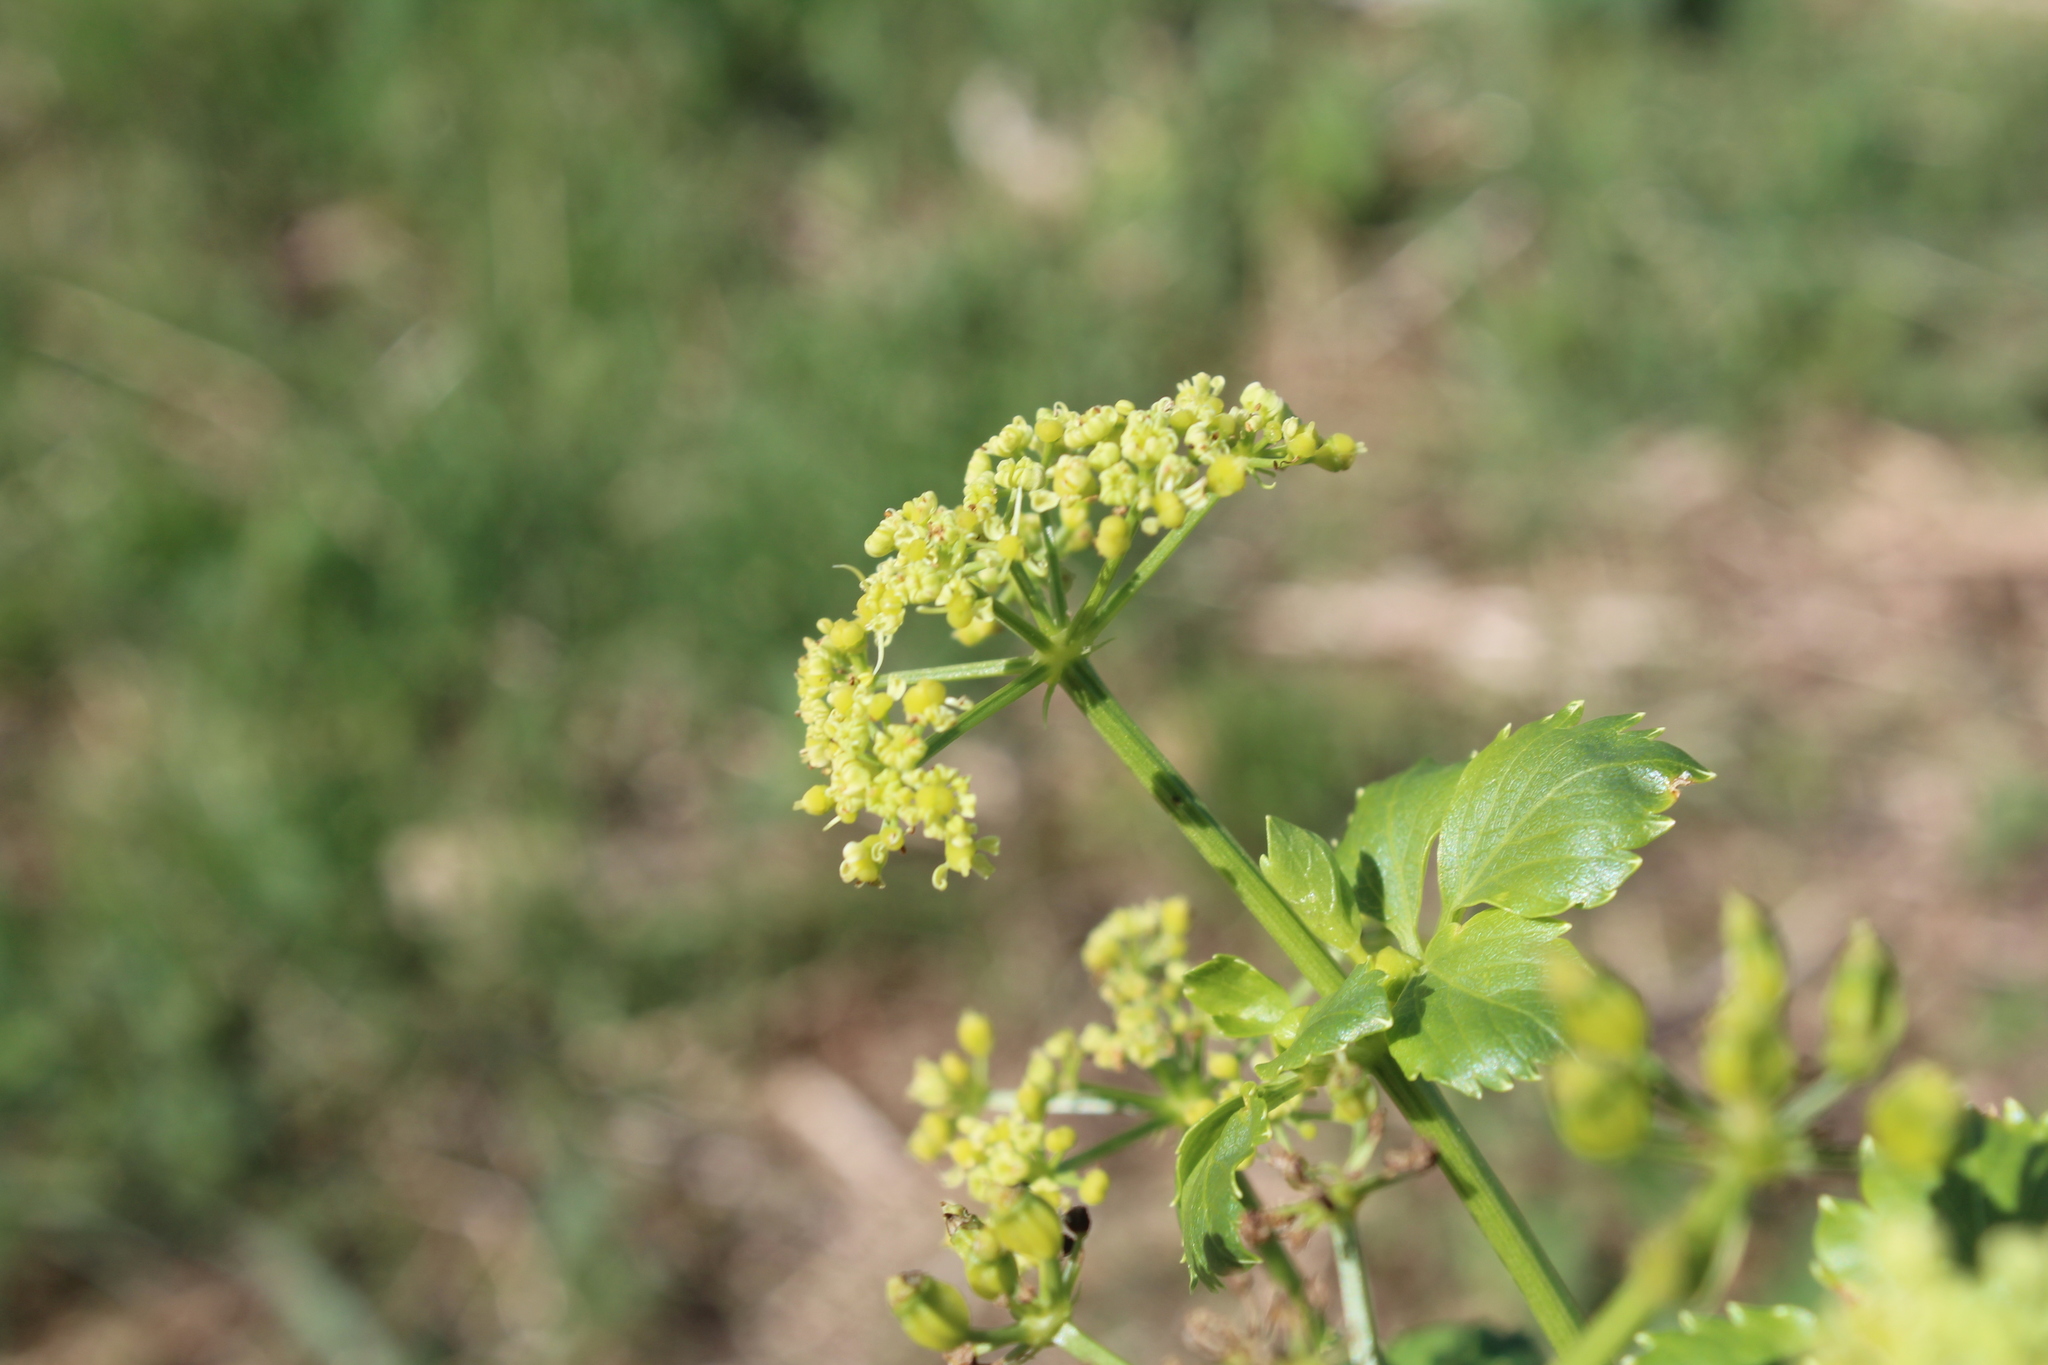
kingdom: Plantae
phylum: Tracheophyta
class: Magnoliopsida
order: Apiales
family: Apiaceae
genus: Smyrnium
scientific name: Smyrnium olusatrum
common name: Alexanders
